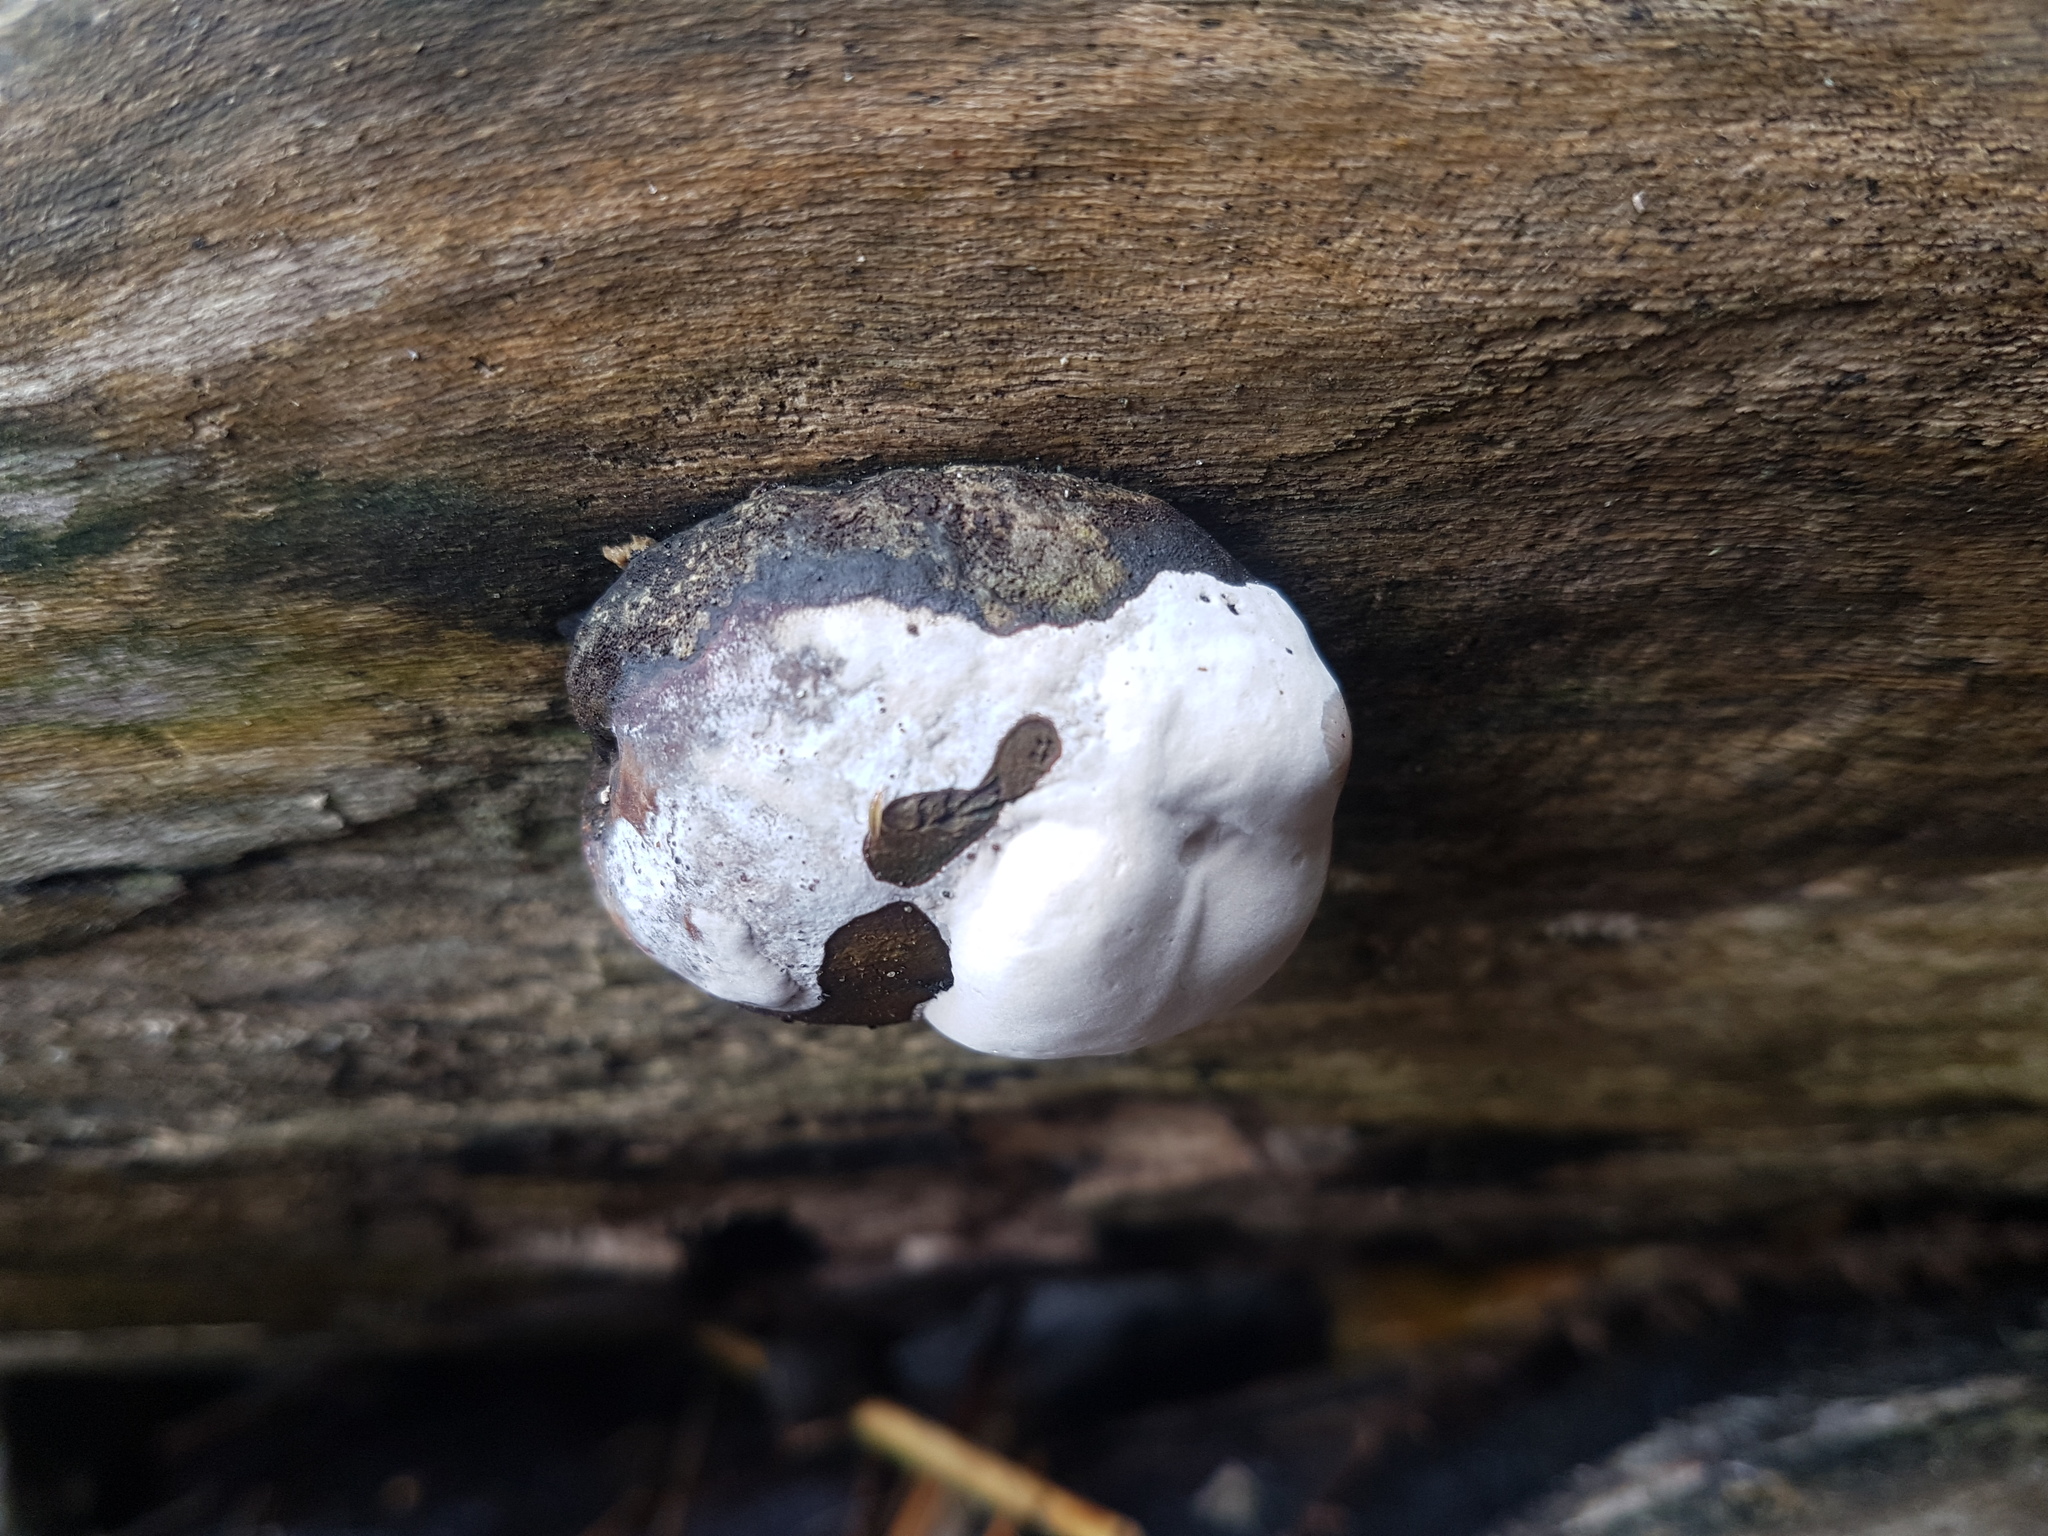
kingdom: Fungi
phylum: Ascomycota
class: Sordariomycetes
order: Xylariales
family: Hypoxylaceae
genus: Daldinia
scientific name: Daldinia
